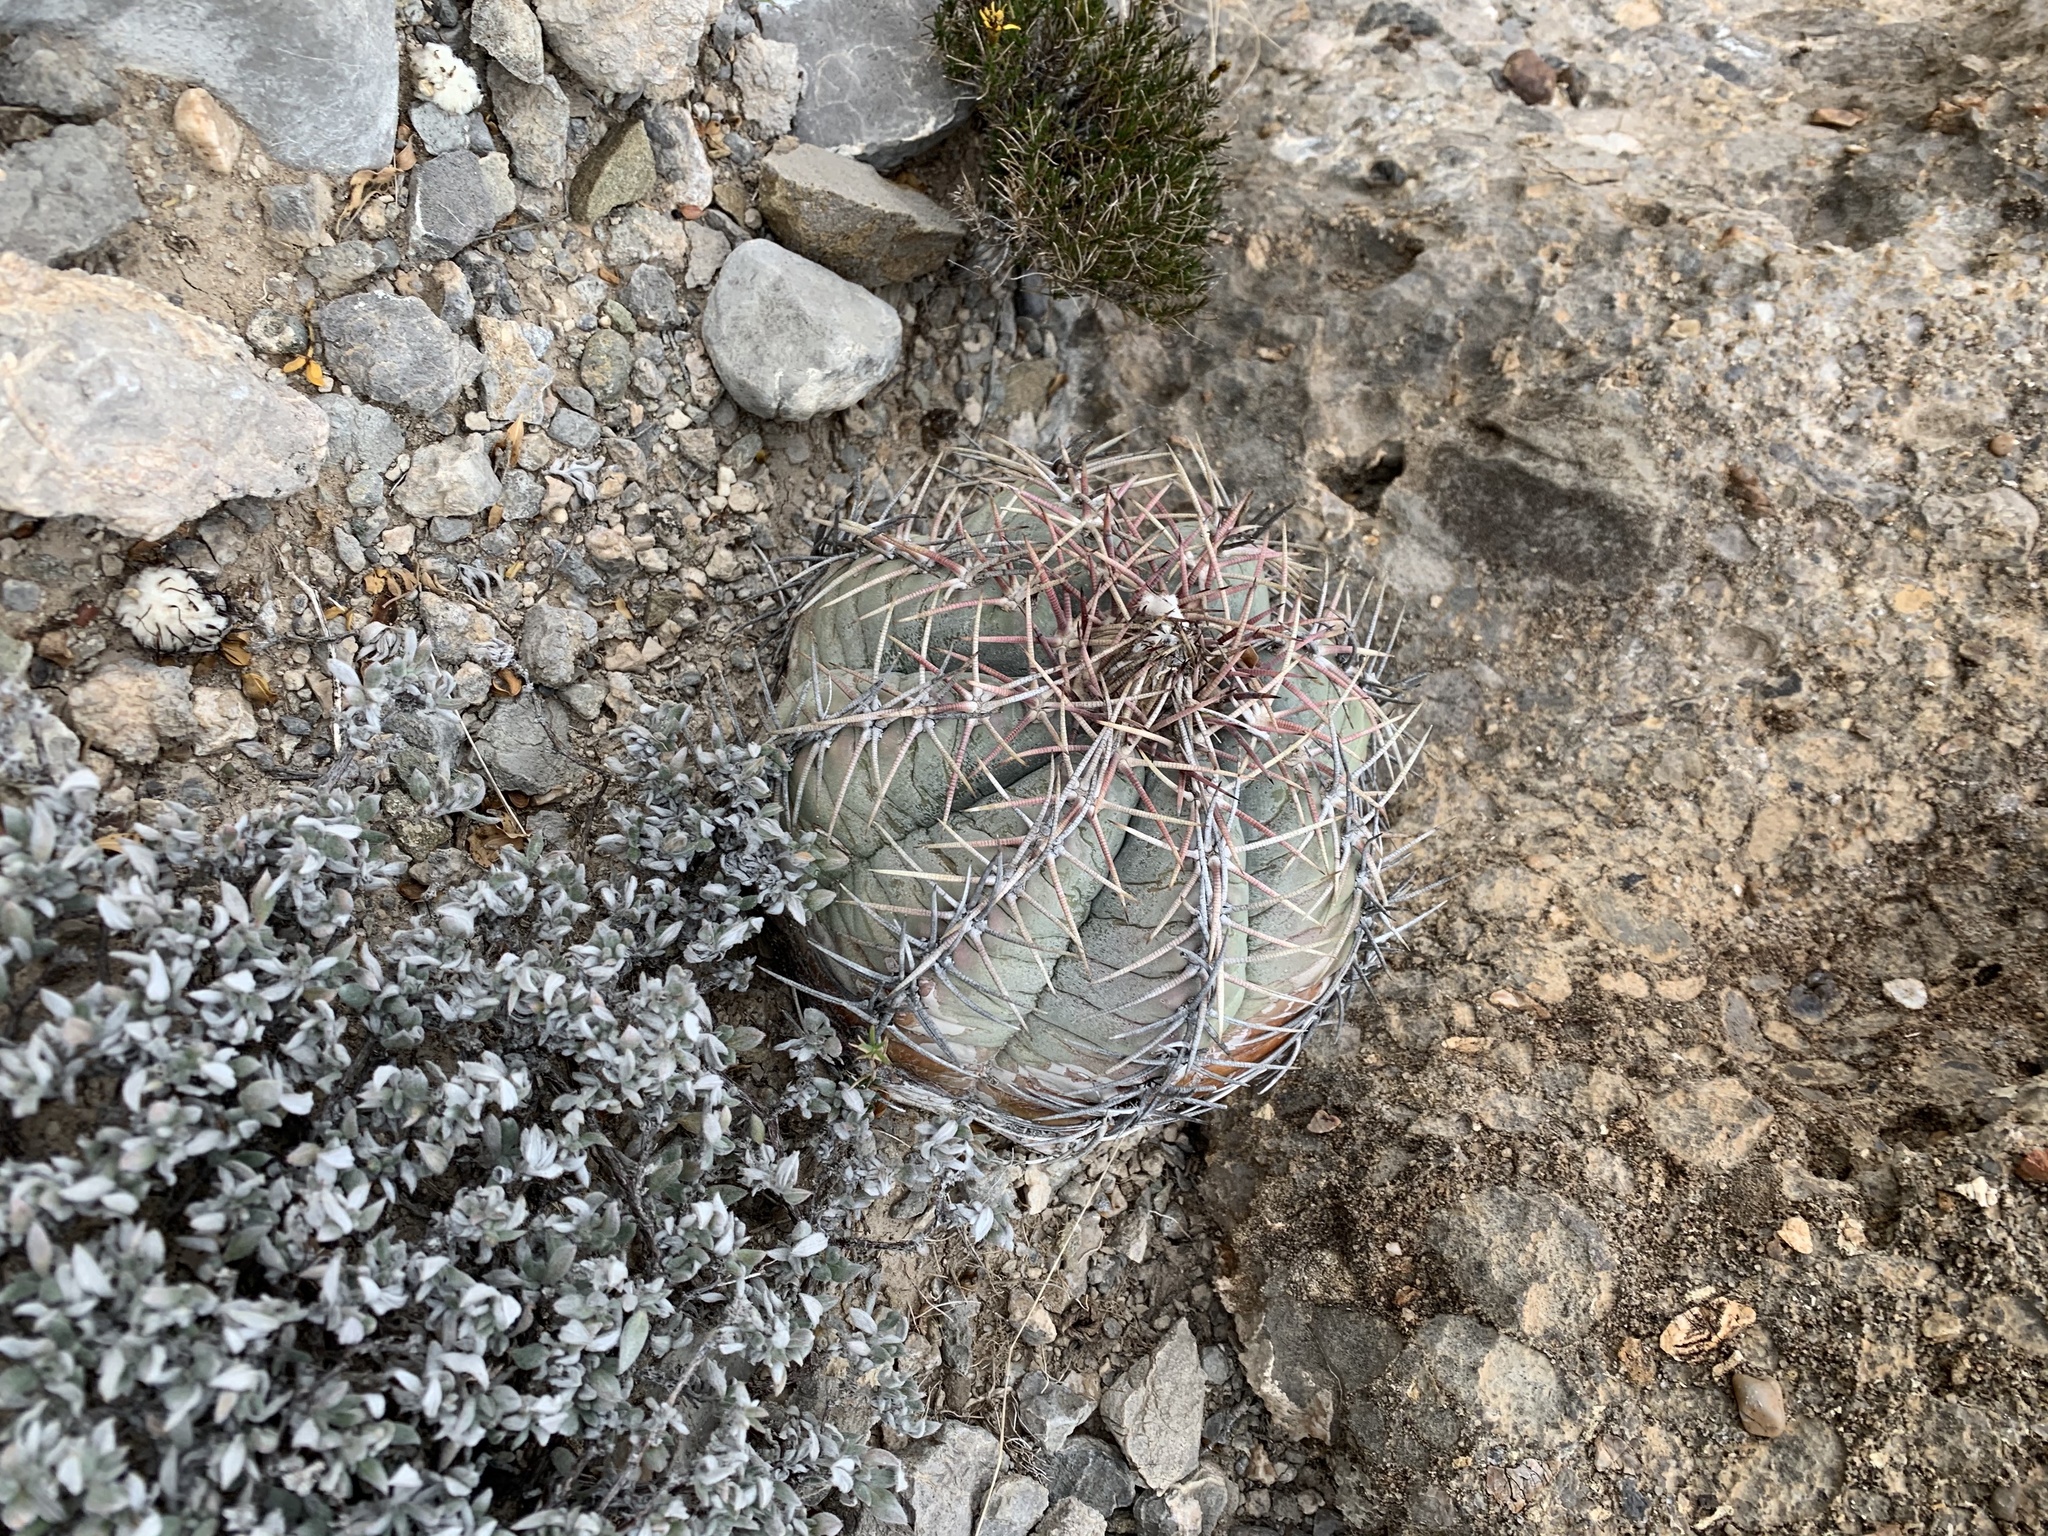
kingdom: Plantae
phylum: Tracheophyta
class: Magnoliopsida
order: Caryophyllales
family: Cactaceae
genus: Echinocactus
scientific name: Echinocactus horizonthalonius
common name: Devilshead
